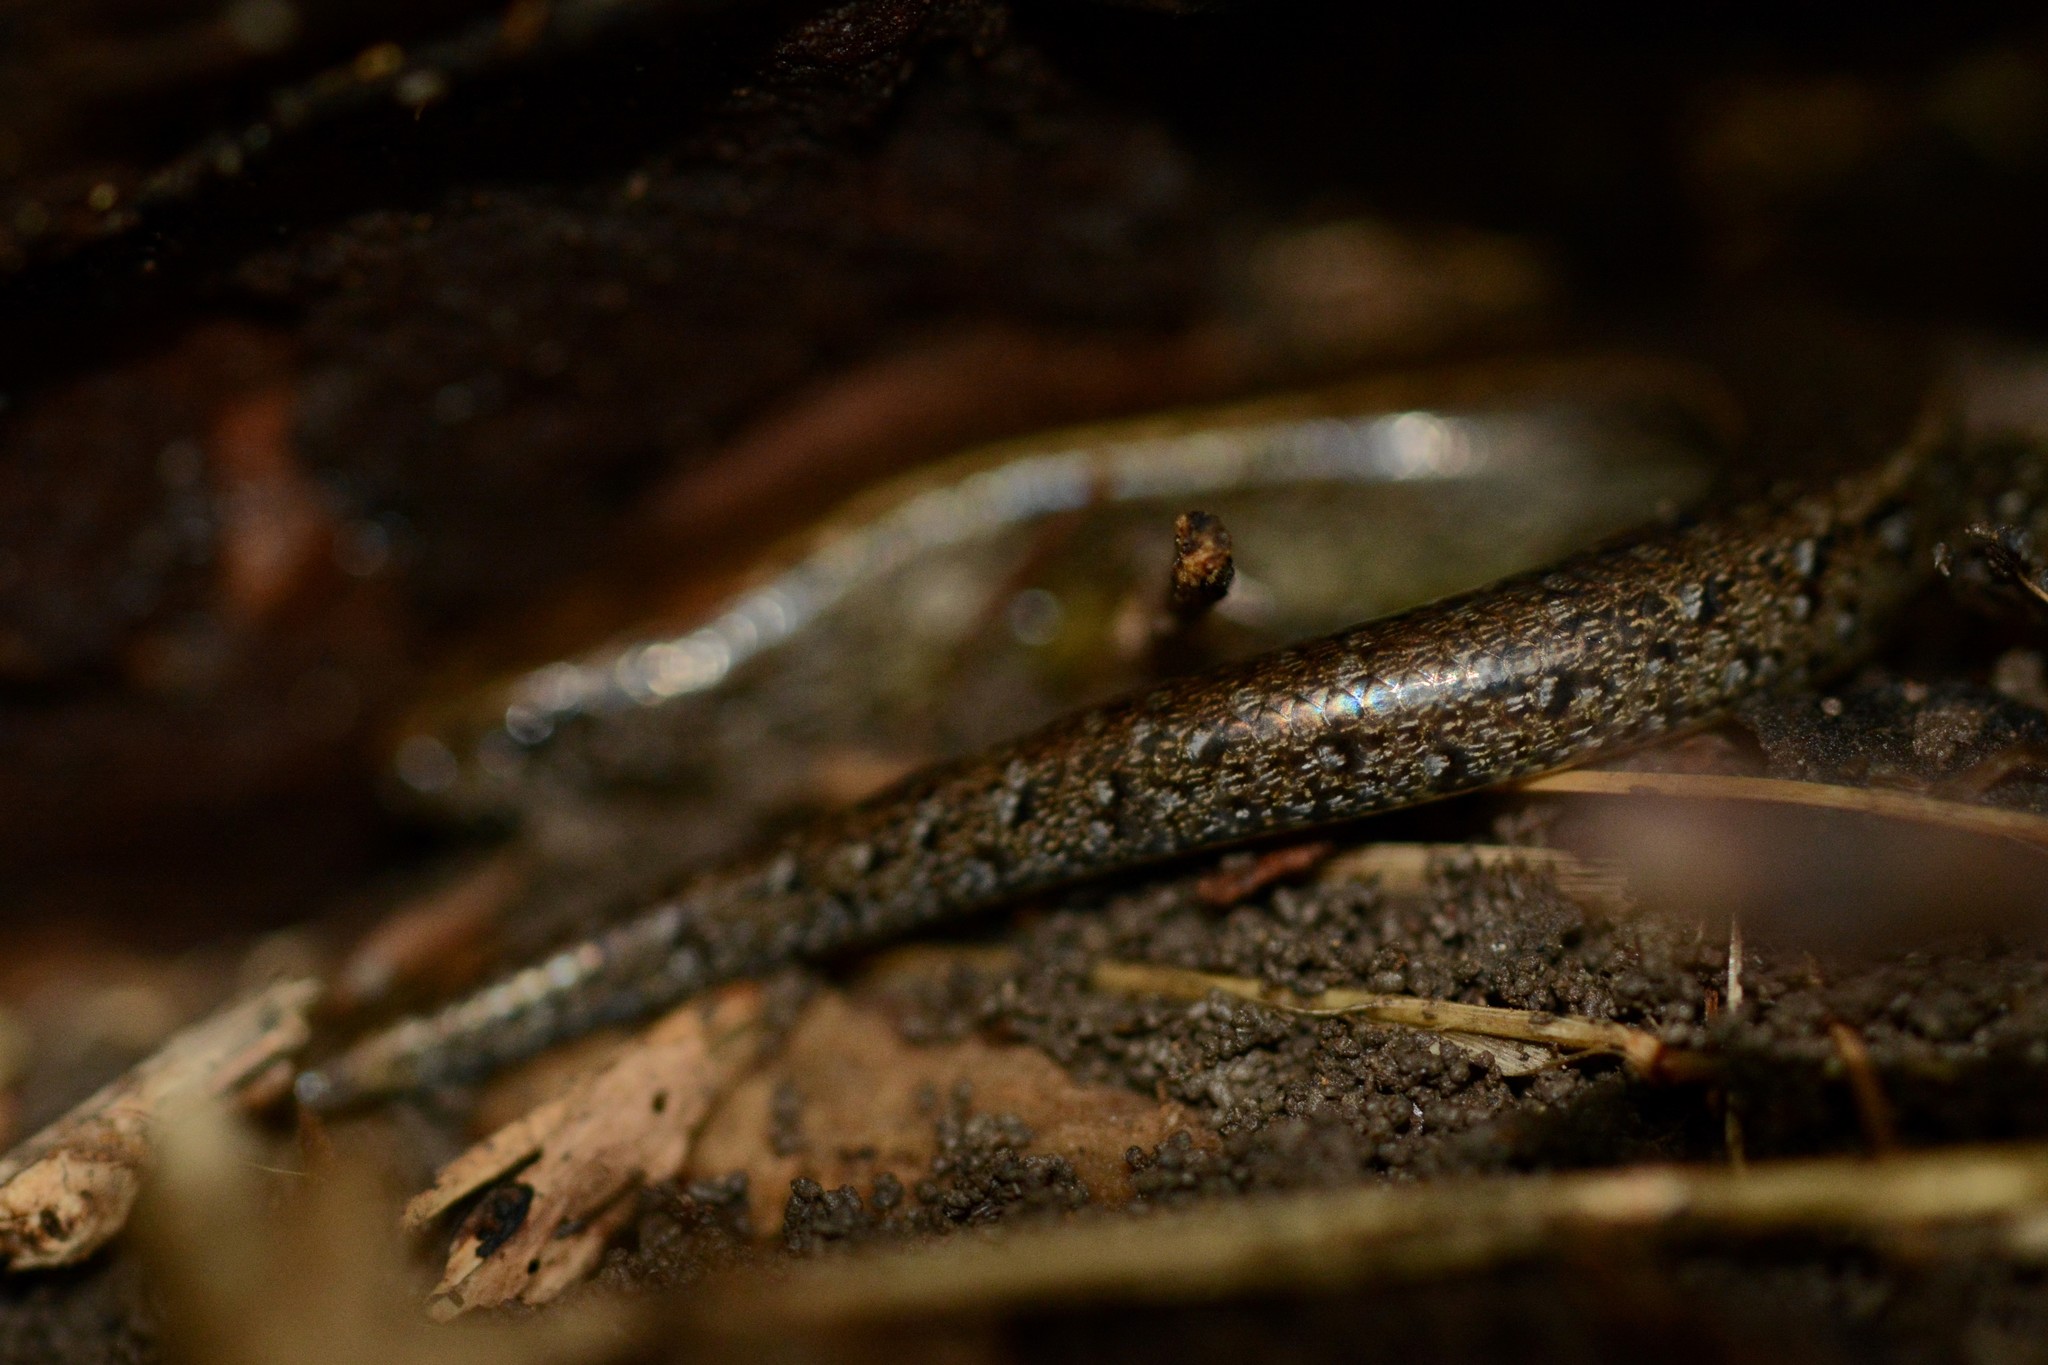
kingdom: Animalia
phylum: Chordata
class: Squamata
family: Scincidae
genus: Oligosoma
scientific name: Oligosoma aeneum
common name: Copper skink
